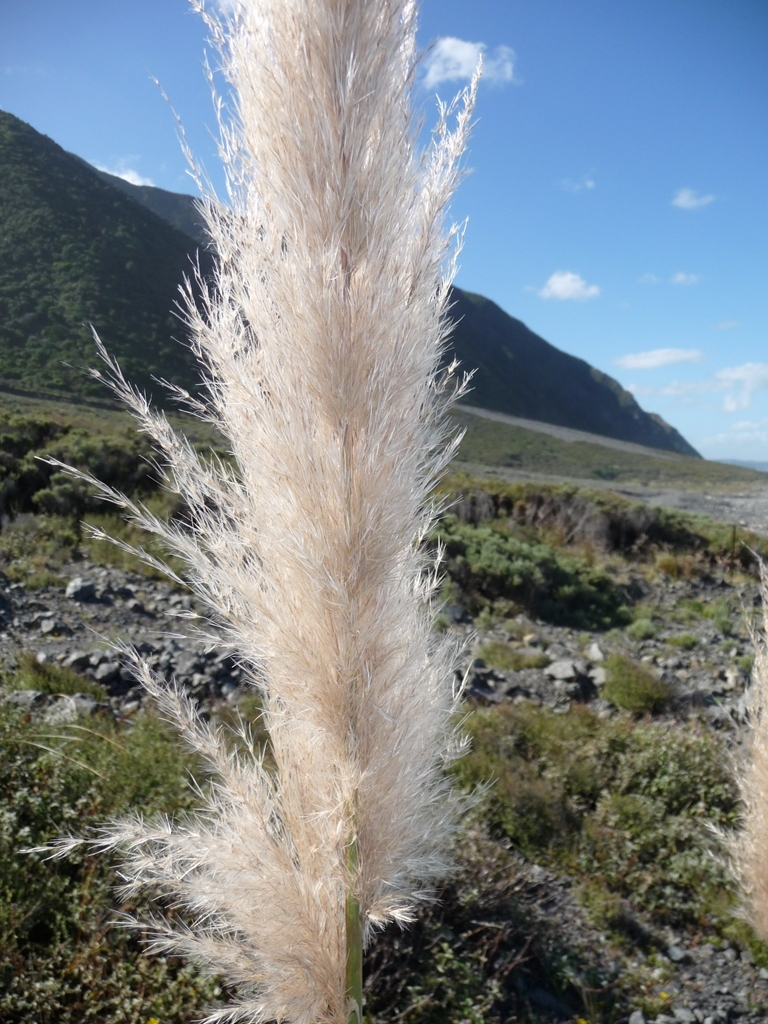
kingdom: Plantae
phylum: Tracheophyta
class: Liliopsida
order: Poales
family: Poaceae
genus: Cortaderia
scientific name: Cortaderia selloana
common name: Uruguayan pampas grass
